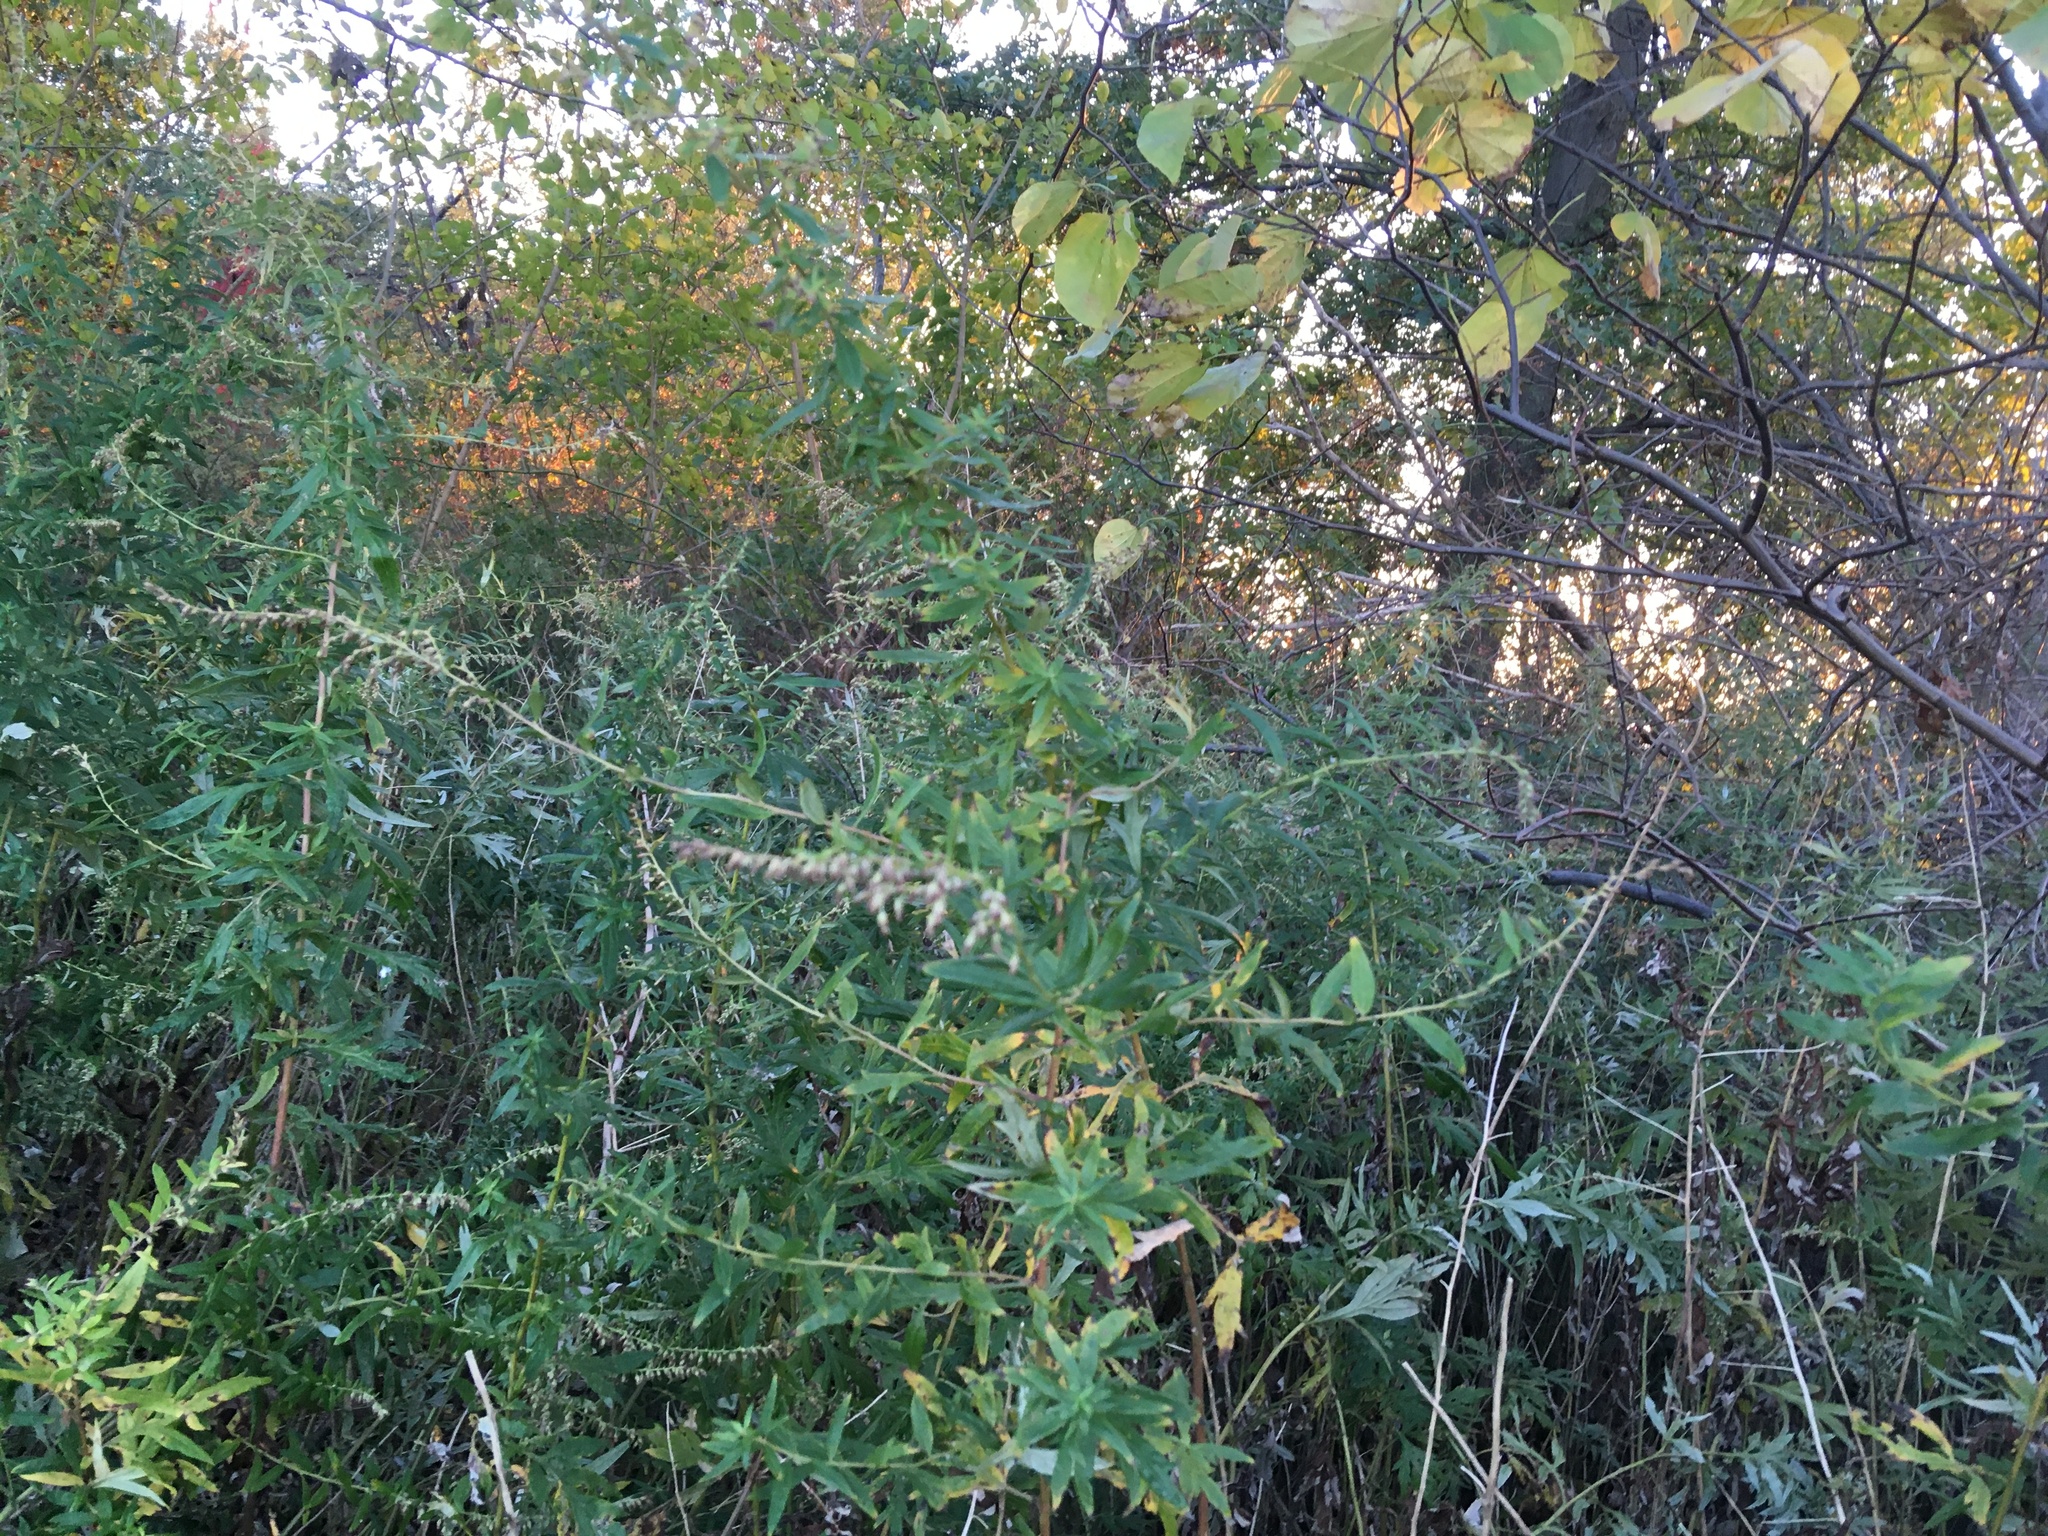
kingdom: Plantae
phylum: Tracheophyta
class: Magnoliopsida
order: Asterales
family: Asteraceae
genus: Artemisia
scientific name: Artemisia vulgaris
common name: Mugwort
